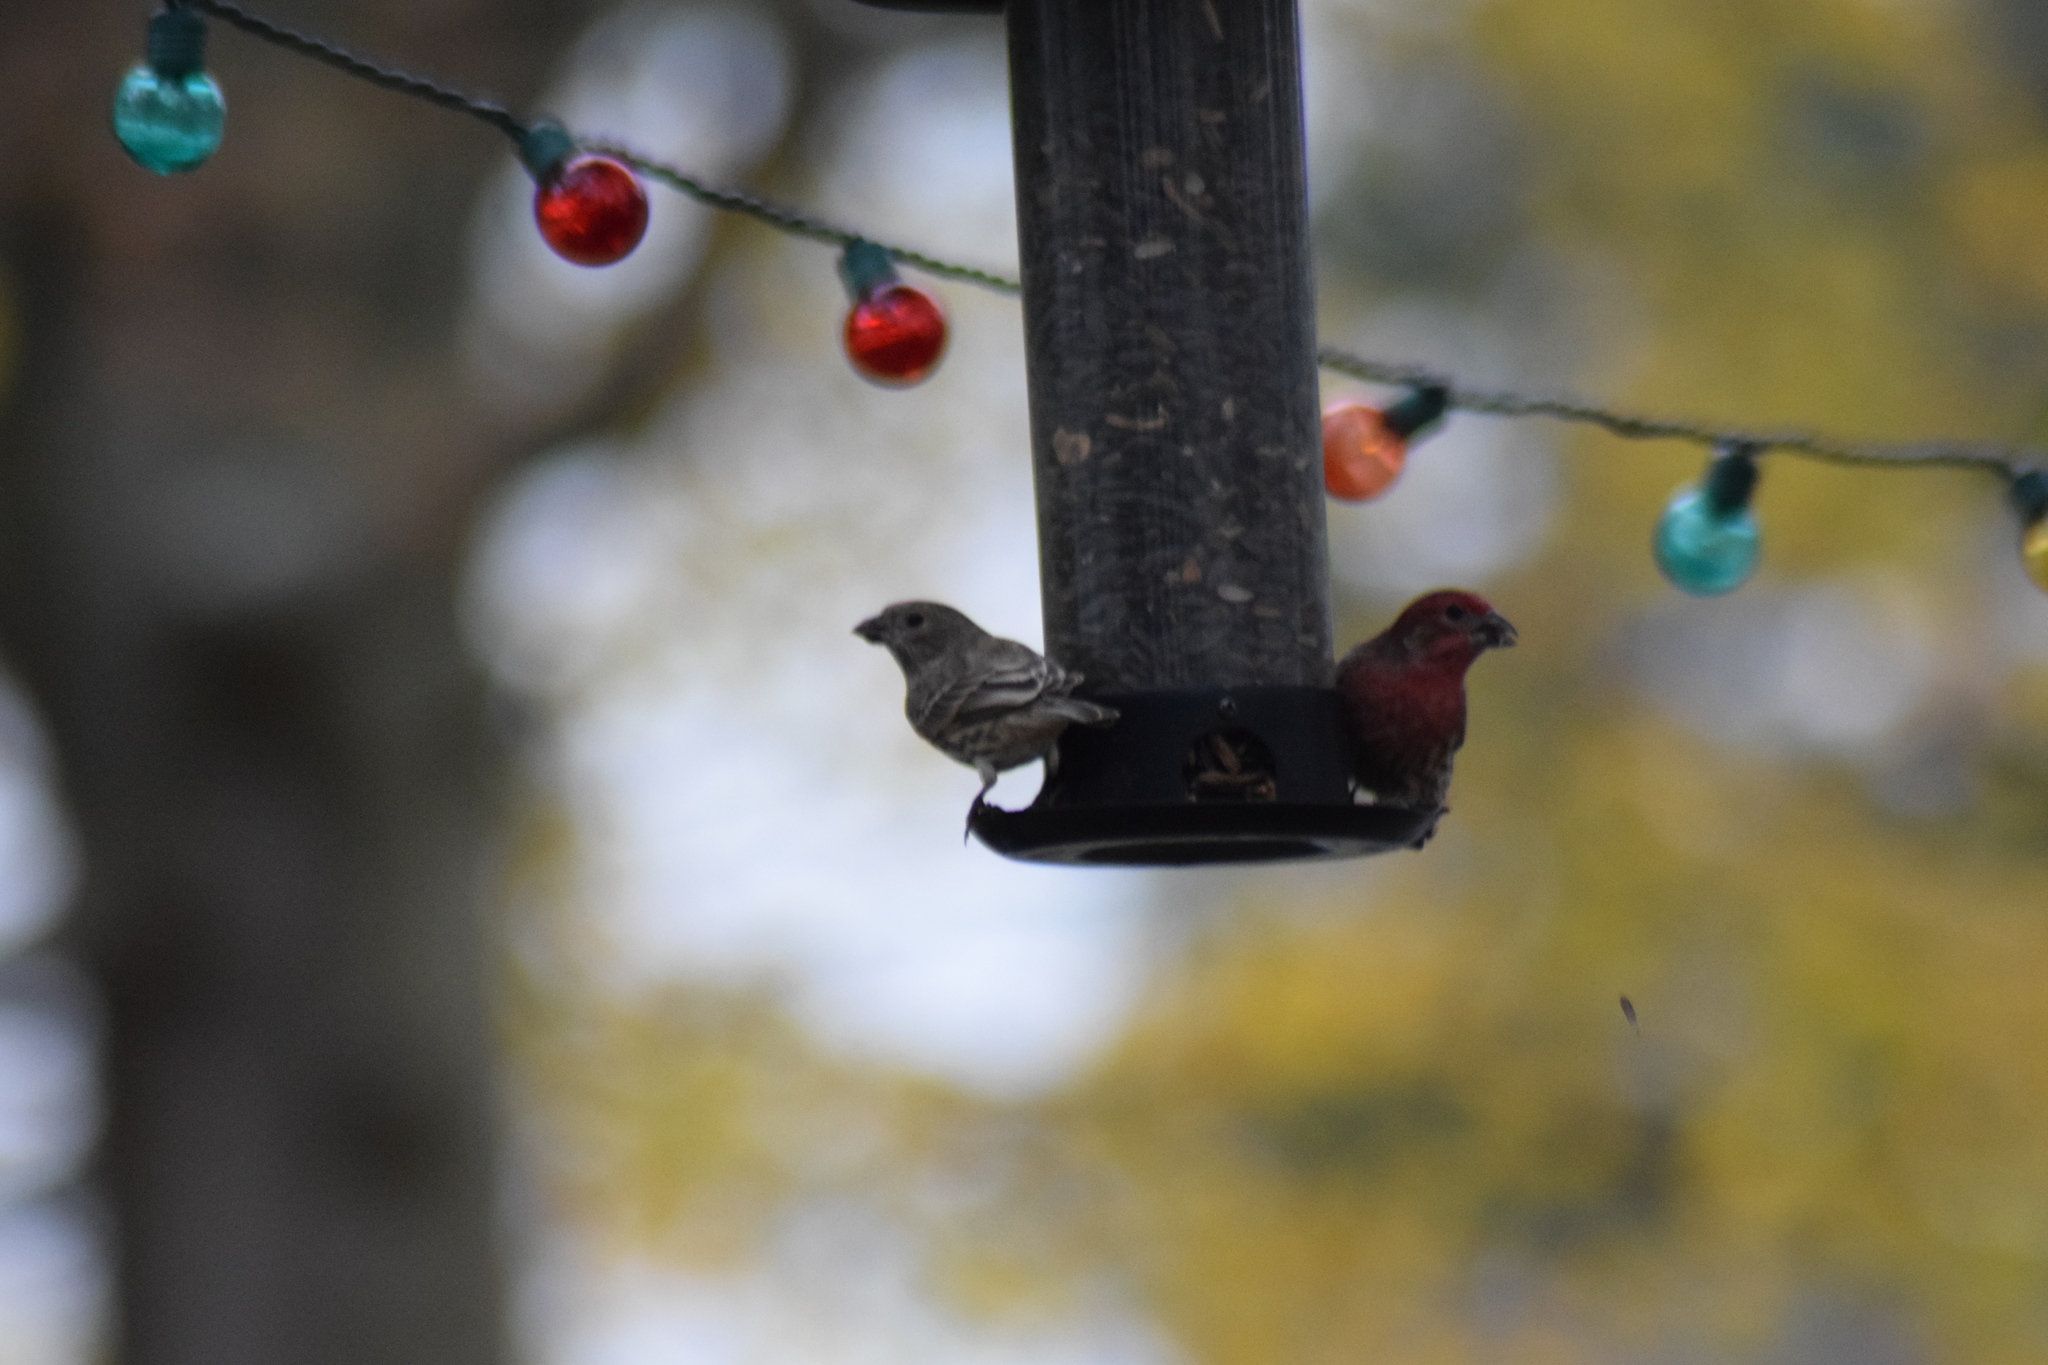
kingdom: Animalia
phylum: Chordata
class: Aves
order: Passeriformes
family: Fringillidae
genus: Haemorhous
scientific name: Haemorhous mexicanus
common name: House finch
